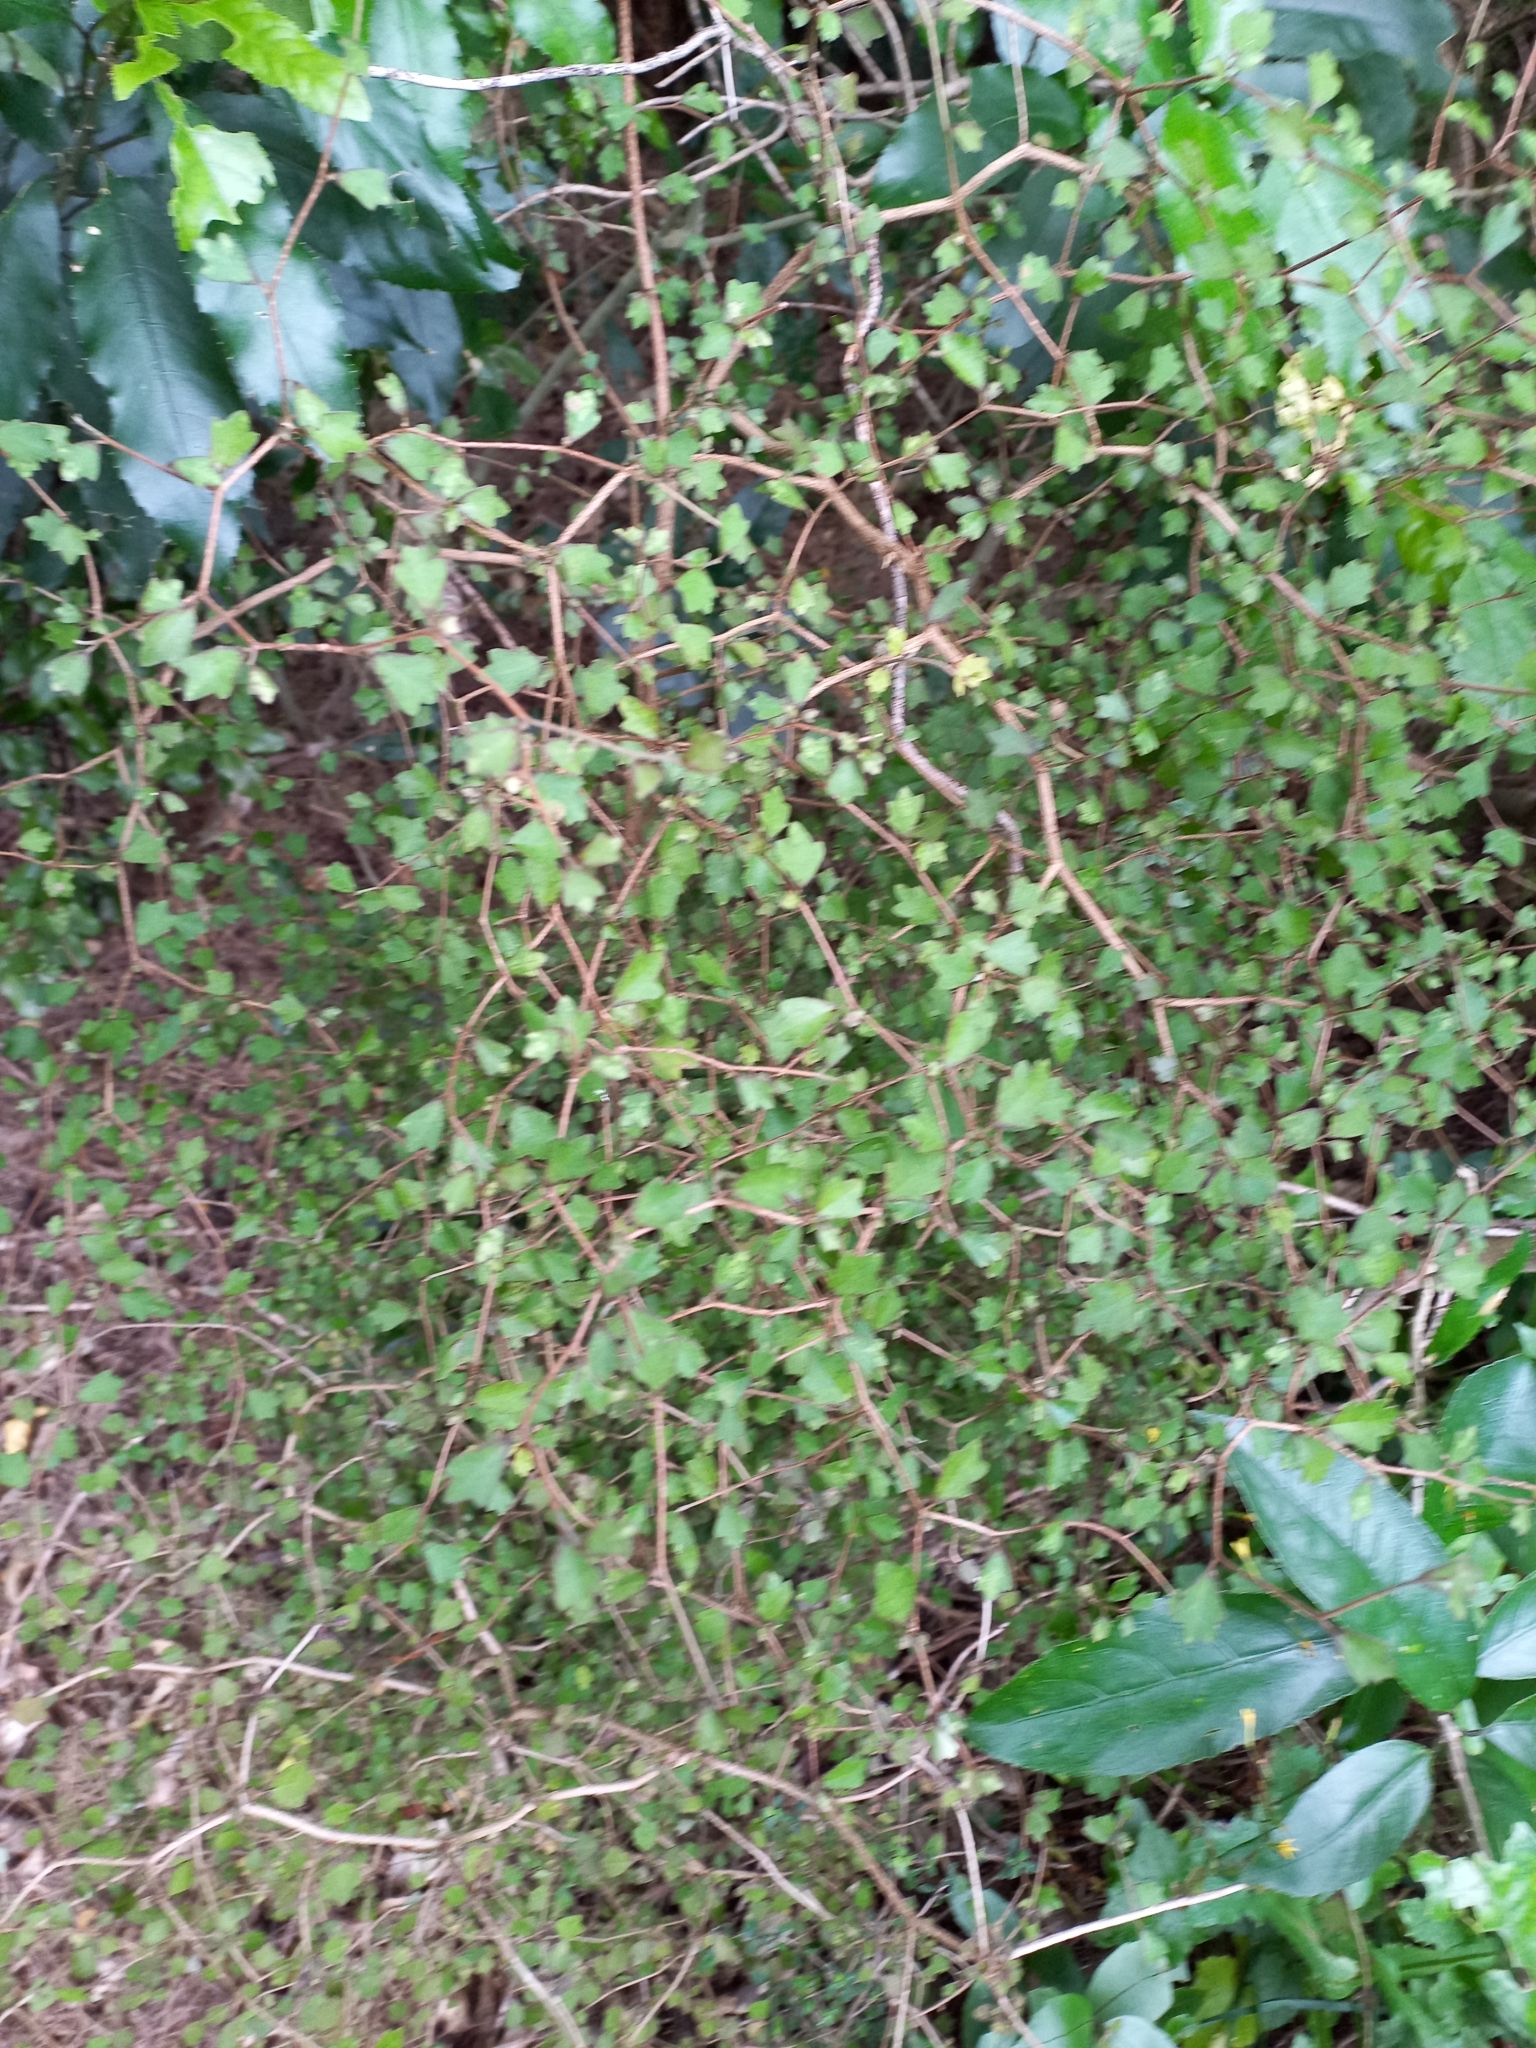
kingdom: Plantae
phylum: Tracheophyta
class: Magnoliopsida
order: Apiales
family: Pennantiaceae
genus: Pennantia
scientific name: Pennantia corymbosa
